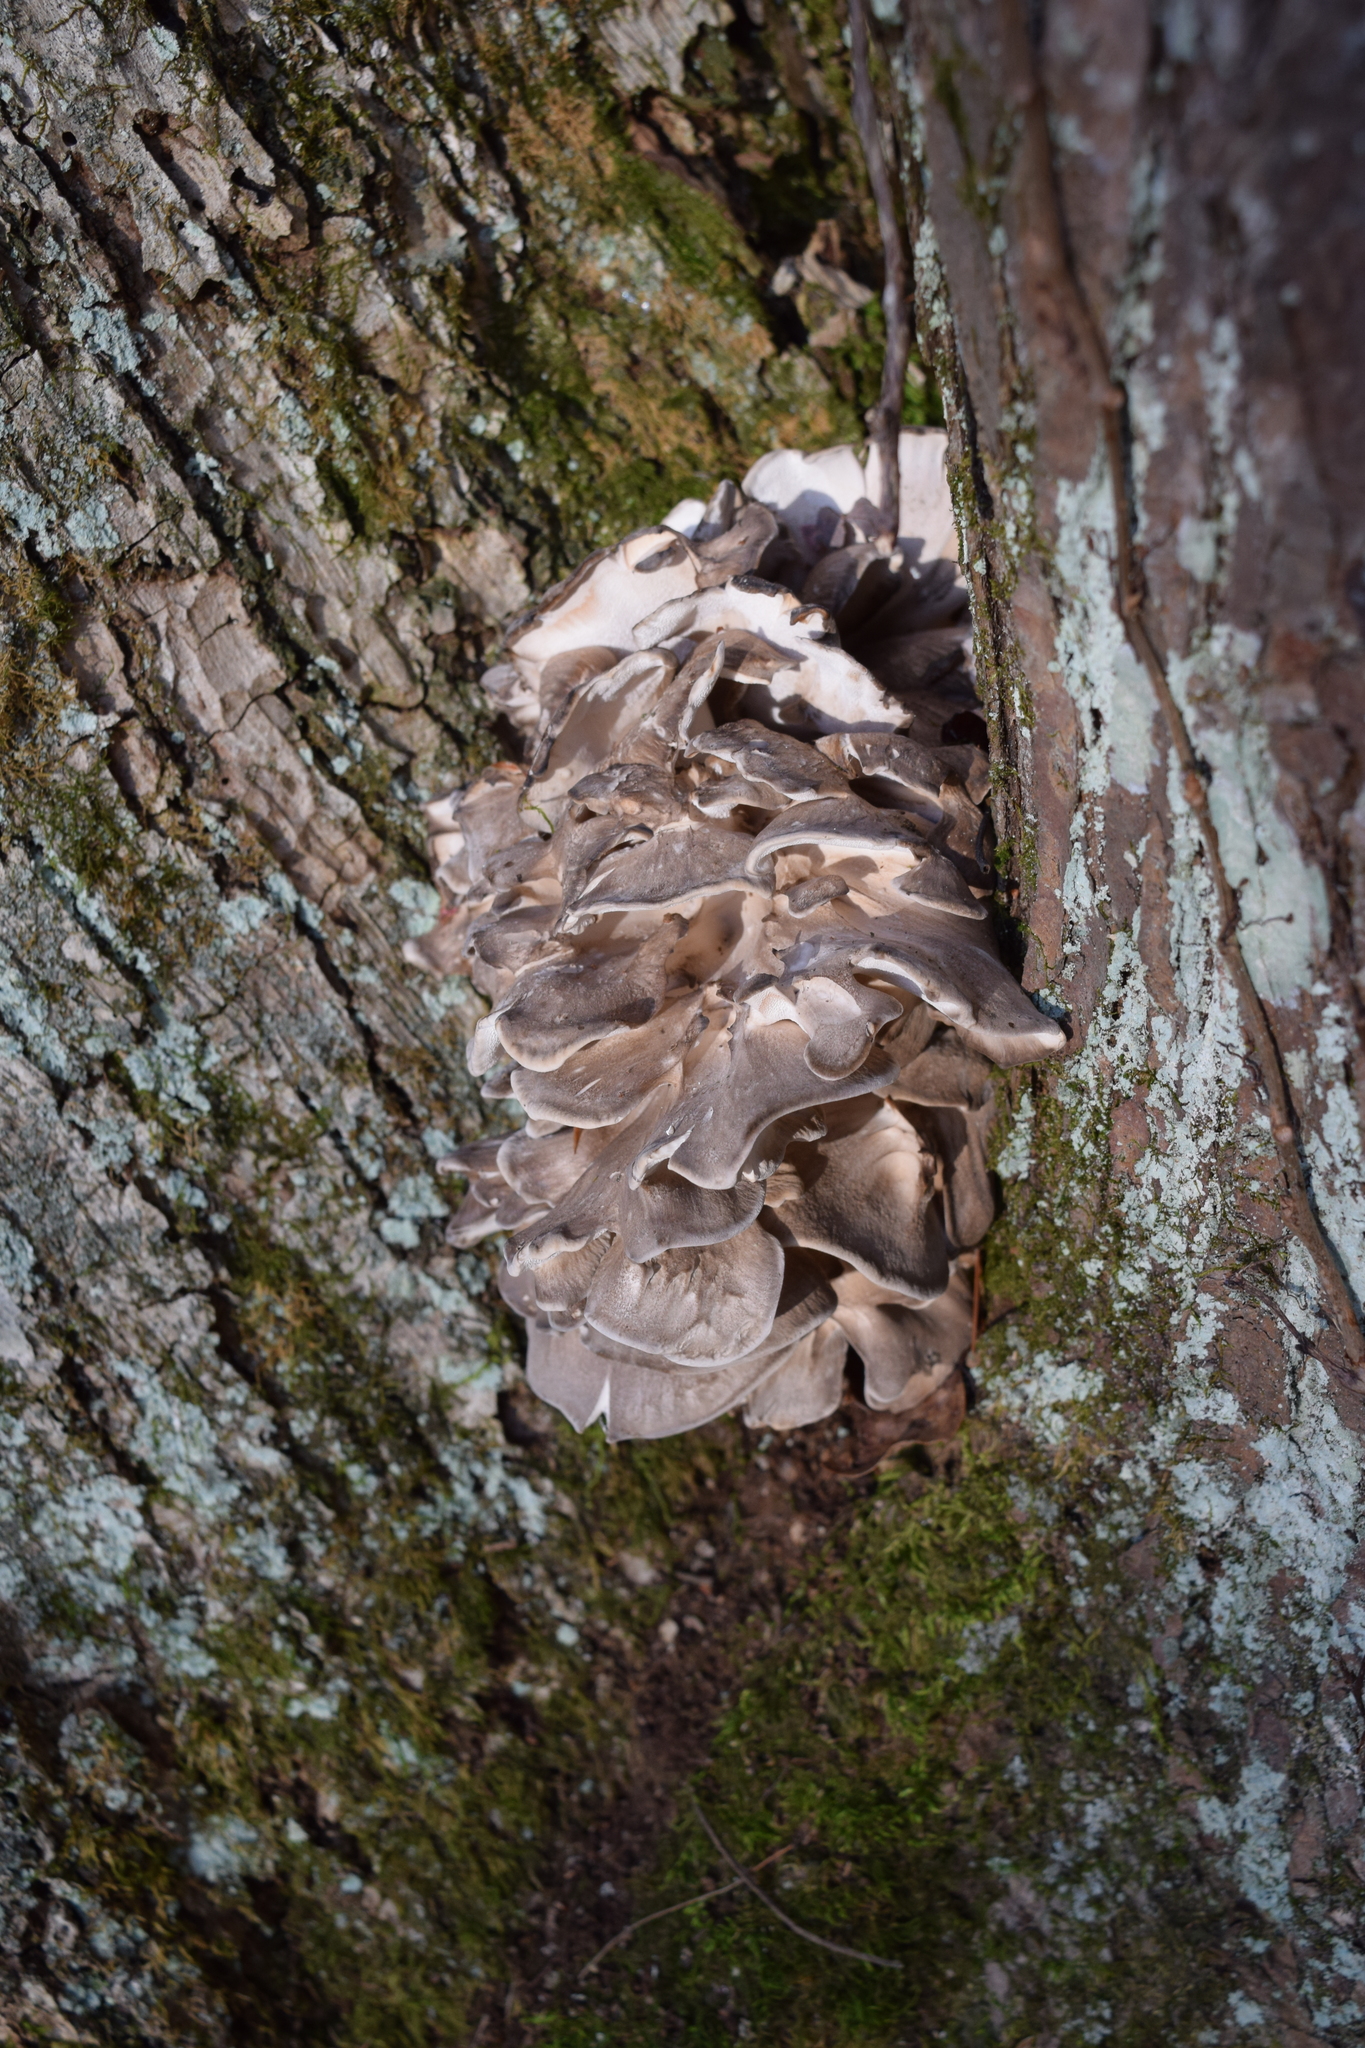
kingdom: Fungi
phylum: Basidiomycota
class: Agaricomycetes
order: Polyporales
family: Grifolaceae
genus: Grifola
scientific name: Grifola frondosa
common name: Hen of the woods
